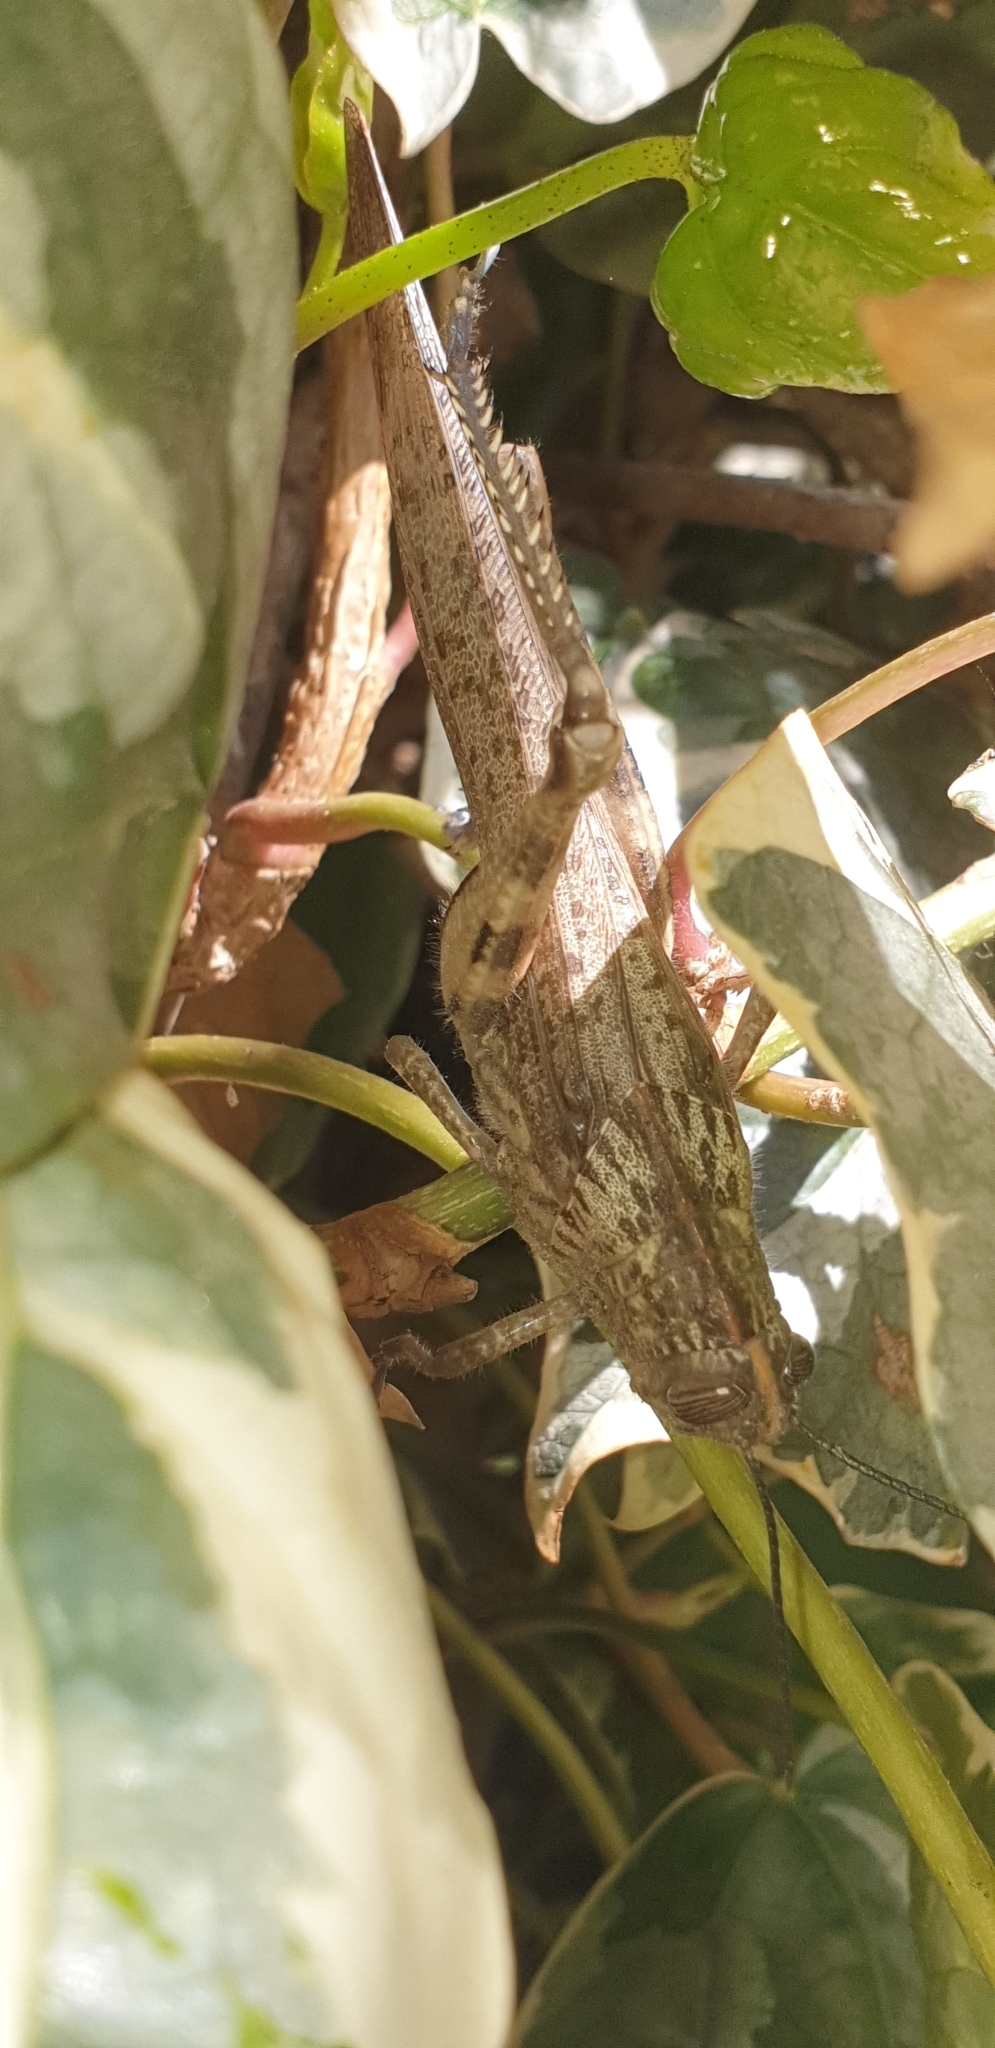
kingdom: Animalia
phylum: Arthropoda
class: Insecta
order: Orthoptera
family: Acrididae
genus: Anacridium
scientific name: Anacridium aegyptium
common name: Egyptian grasshopper
